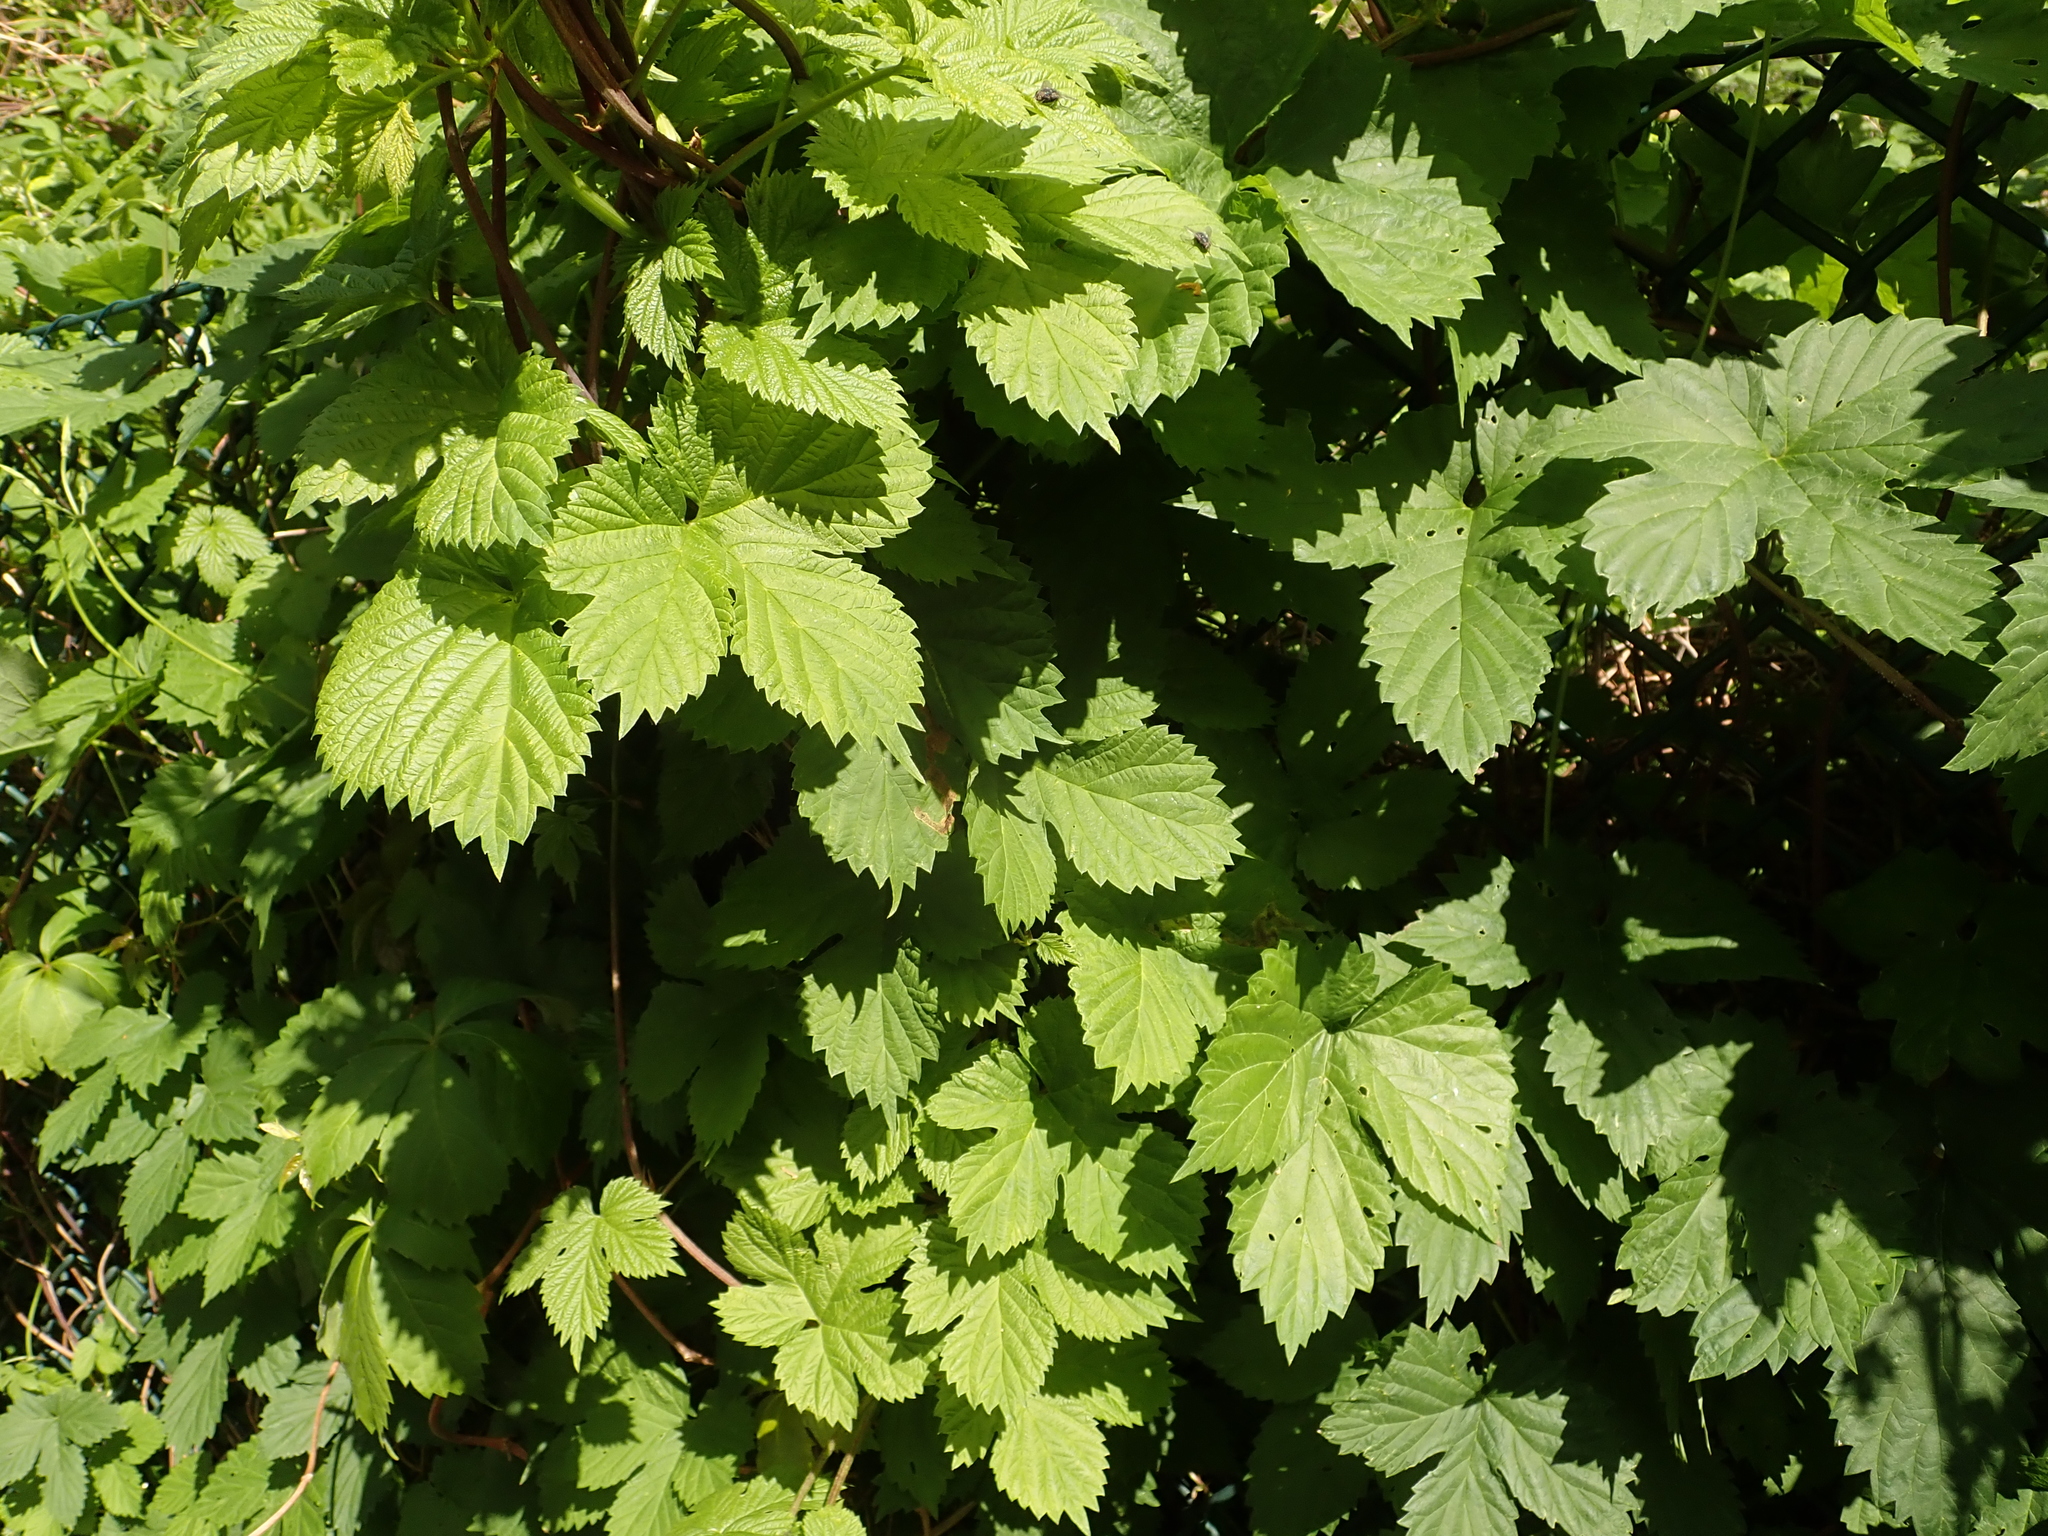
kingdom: Plantae
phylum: Tracheophyta
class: Magnoliopsida
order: Rosales
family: Cannabaceae
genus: Humulus
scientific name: Humulus lupulus
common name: Hop
